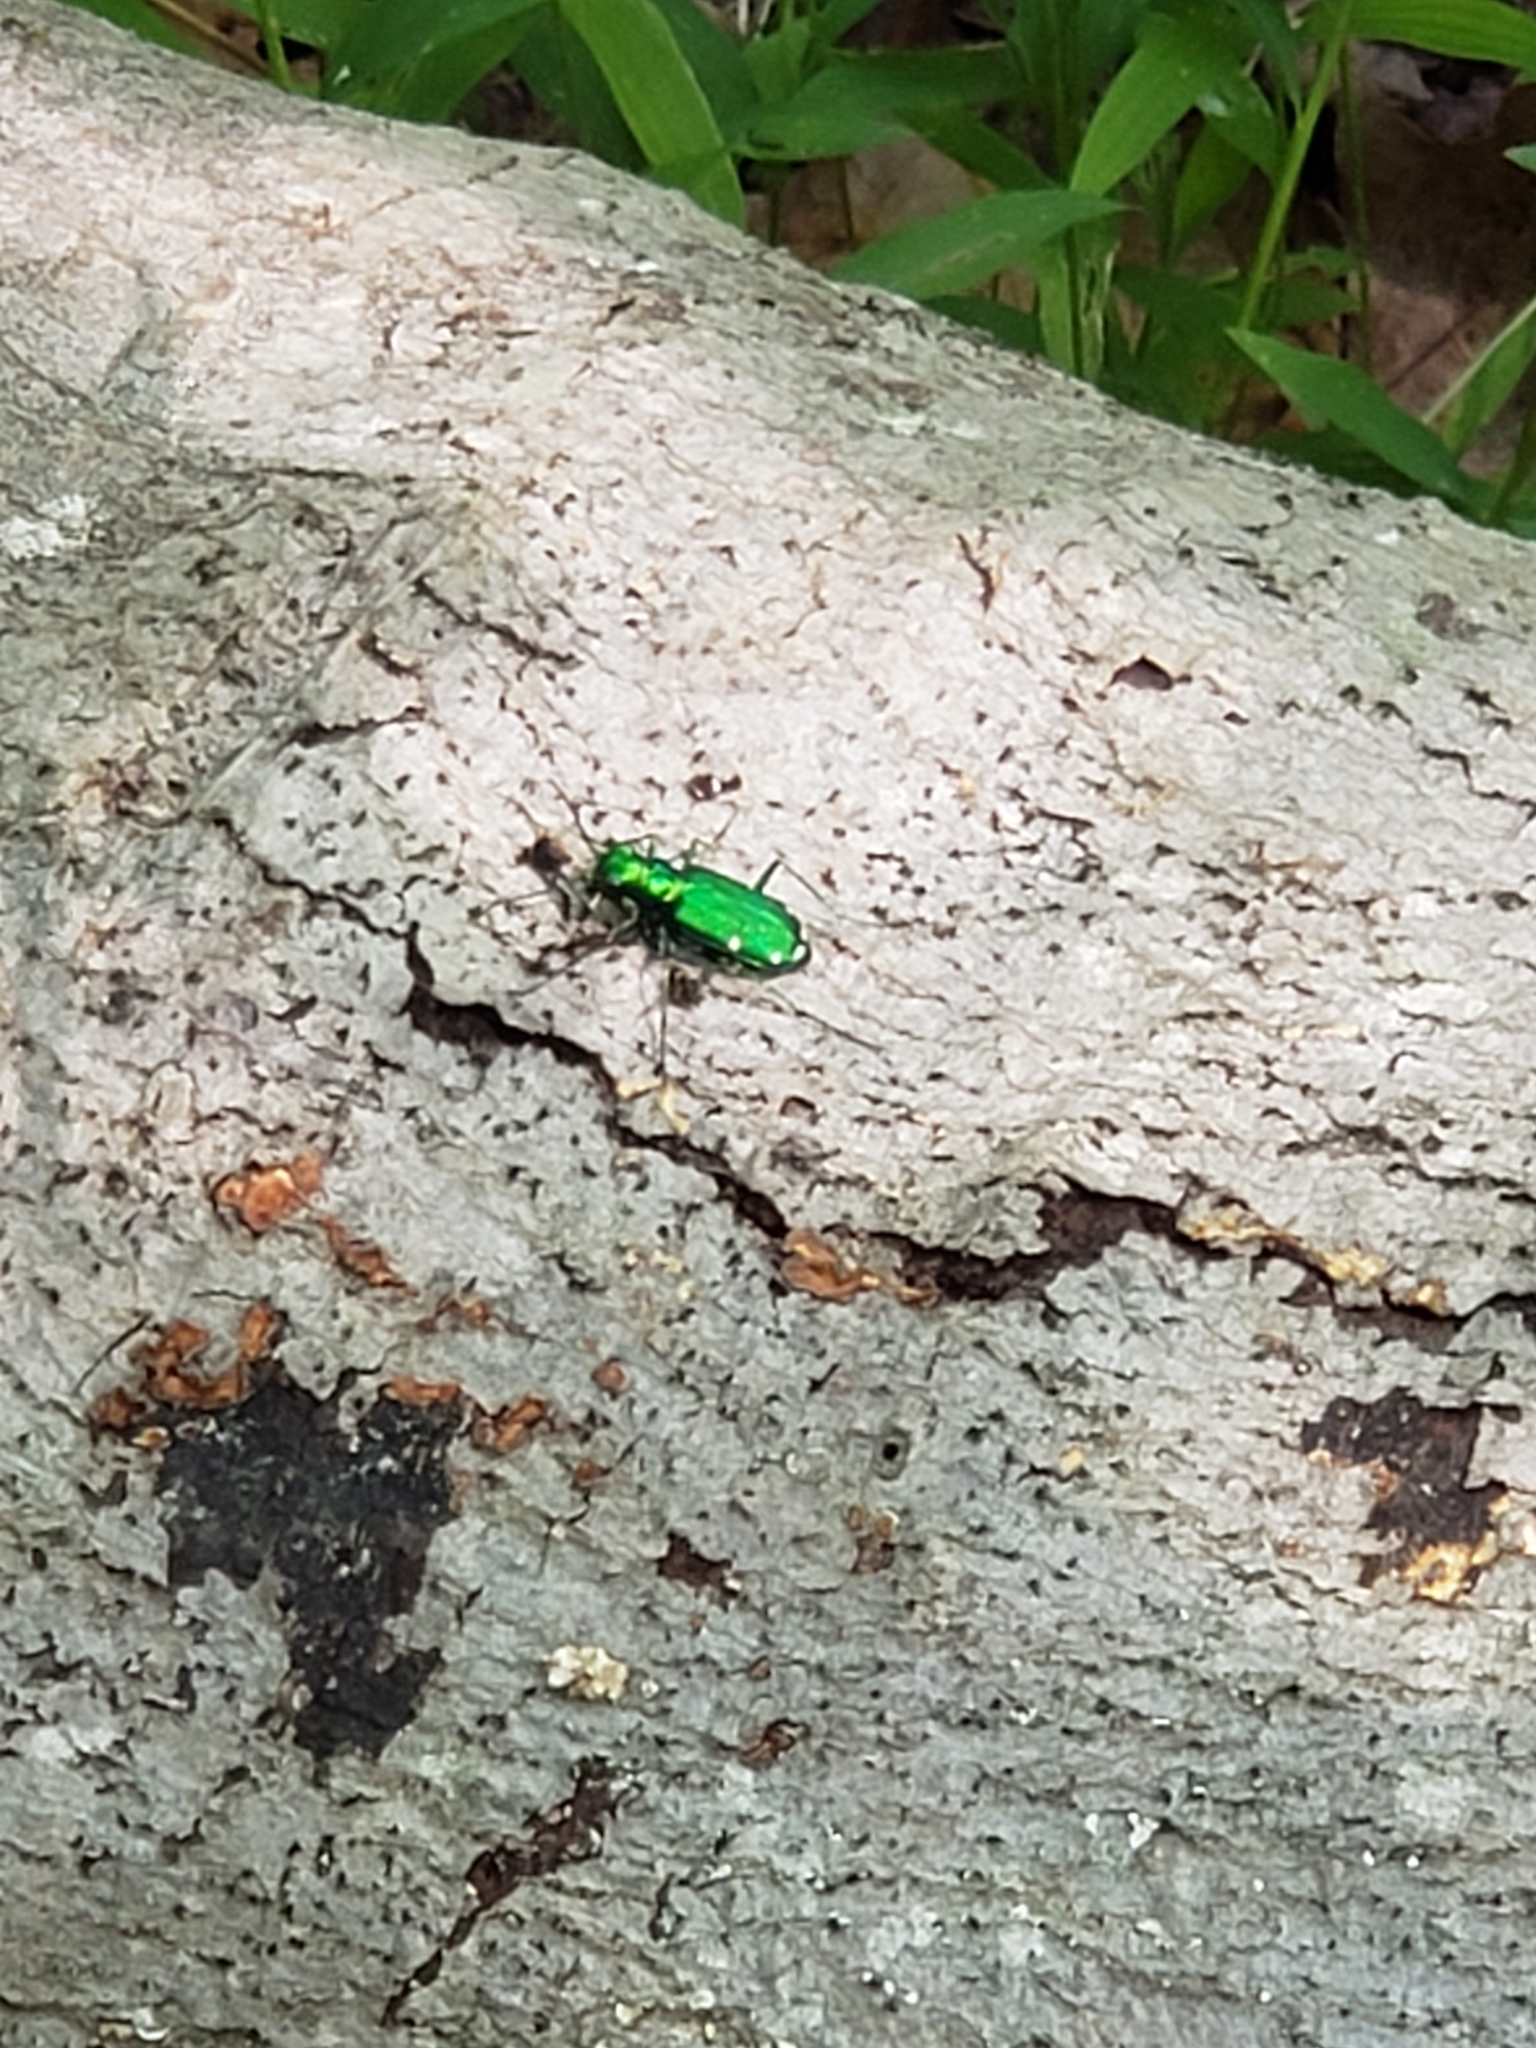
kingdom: Animalia
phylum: Arthropoda
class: Insecta
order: Coleoptera
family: Carabidae
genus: Cicindela
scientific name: Cicindela sexguttata
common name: Six-spotted tiger beetle
